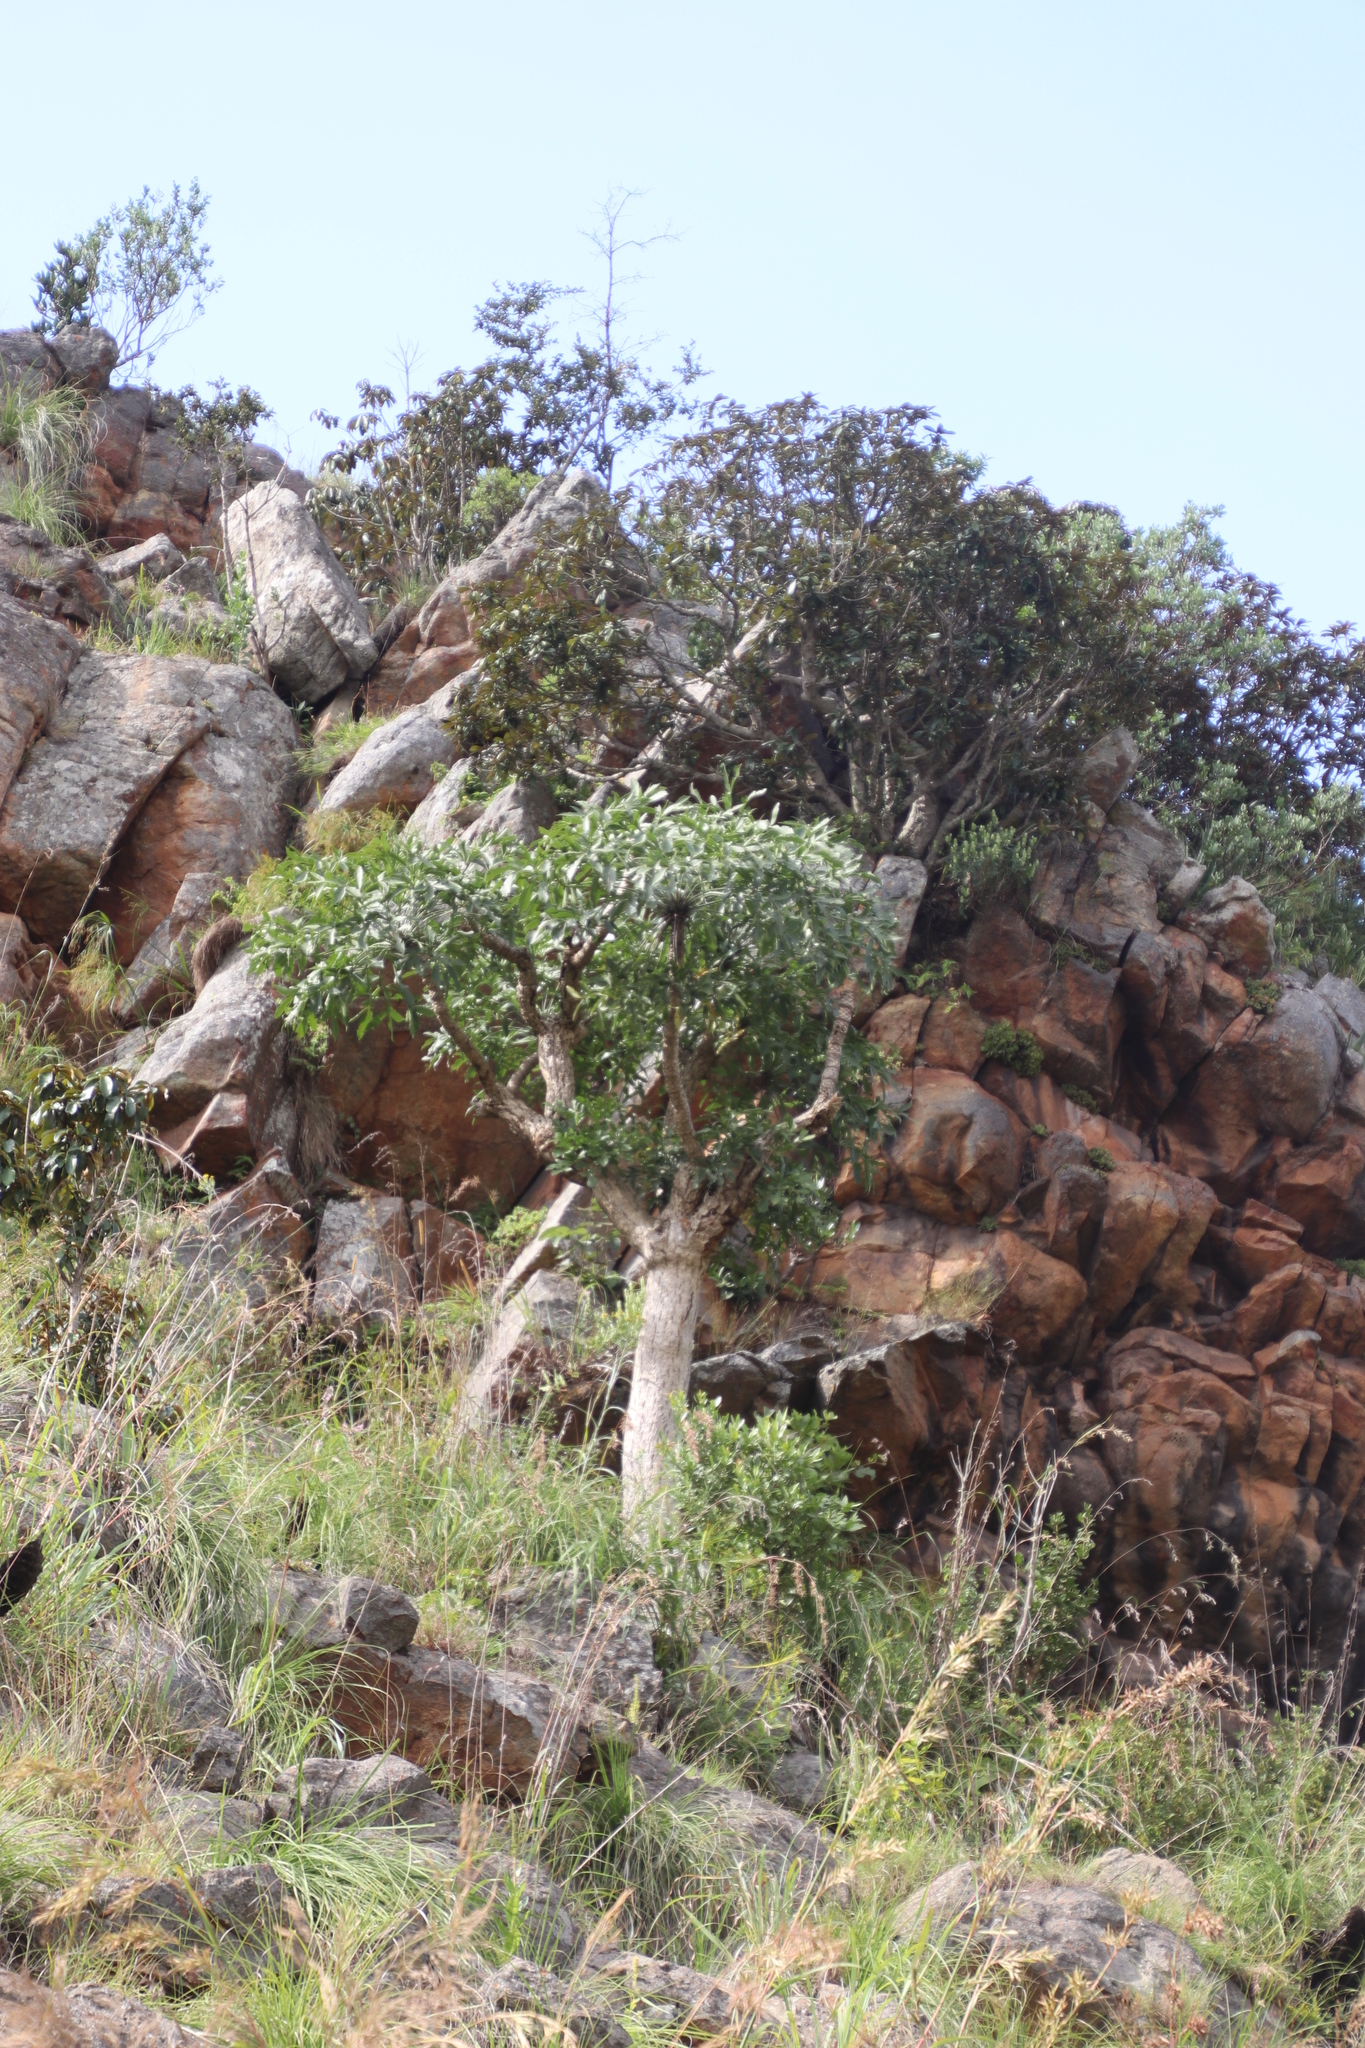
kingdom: Plantae
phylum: Tracheophyta
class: Magnoliopsida
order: Apiales
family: Araliaceae
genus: Cussonia
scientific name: Cussonia spicata
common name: Common cabbagetree
